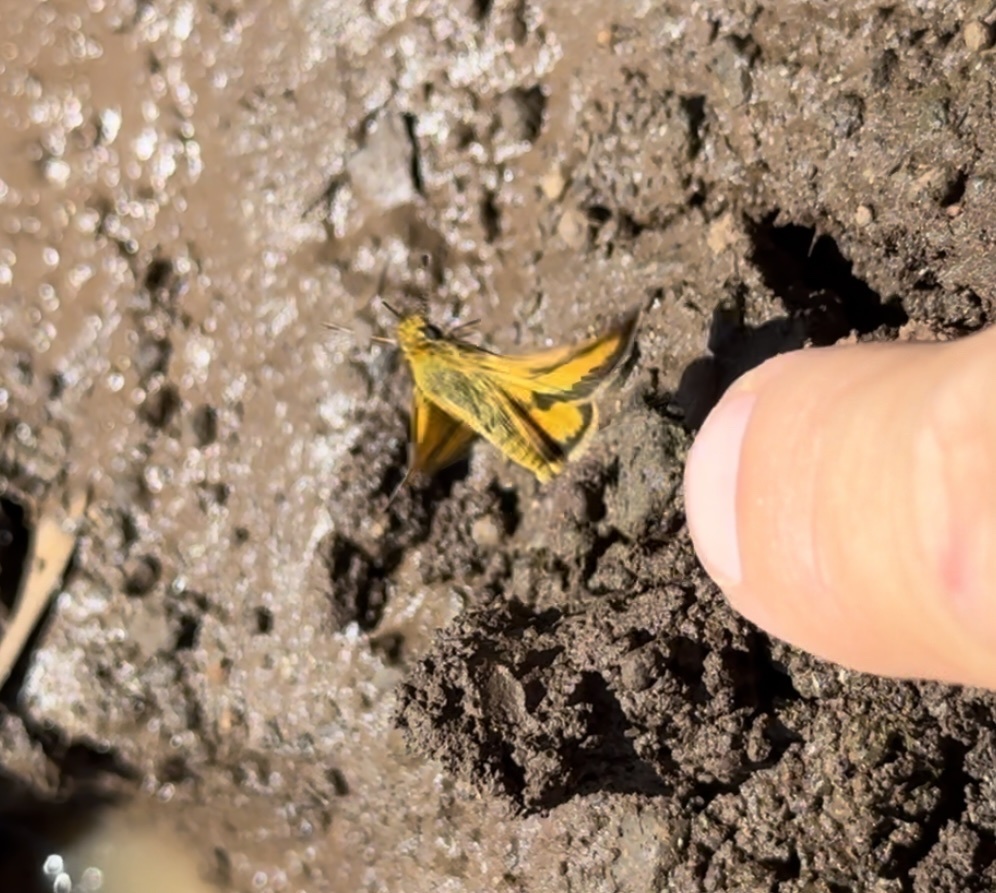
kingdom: Animalia
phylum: Arthropoda
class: Insecta
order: Lepidoptera
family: Hesperiidae
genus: Taractrocera
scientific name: Taractrocera anisomorpha
